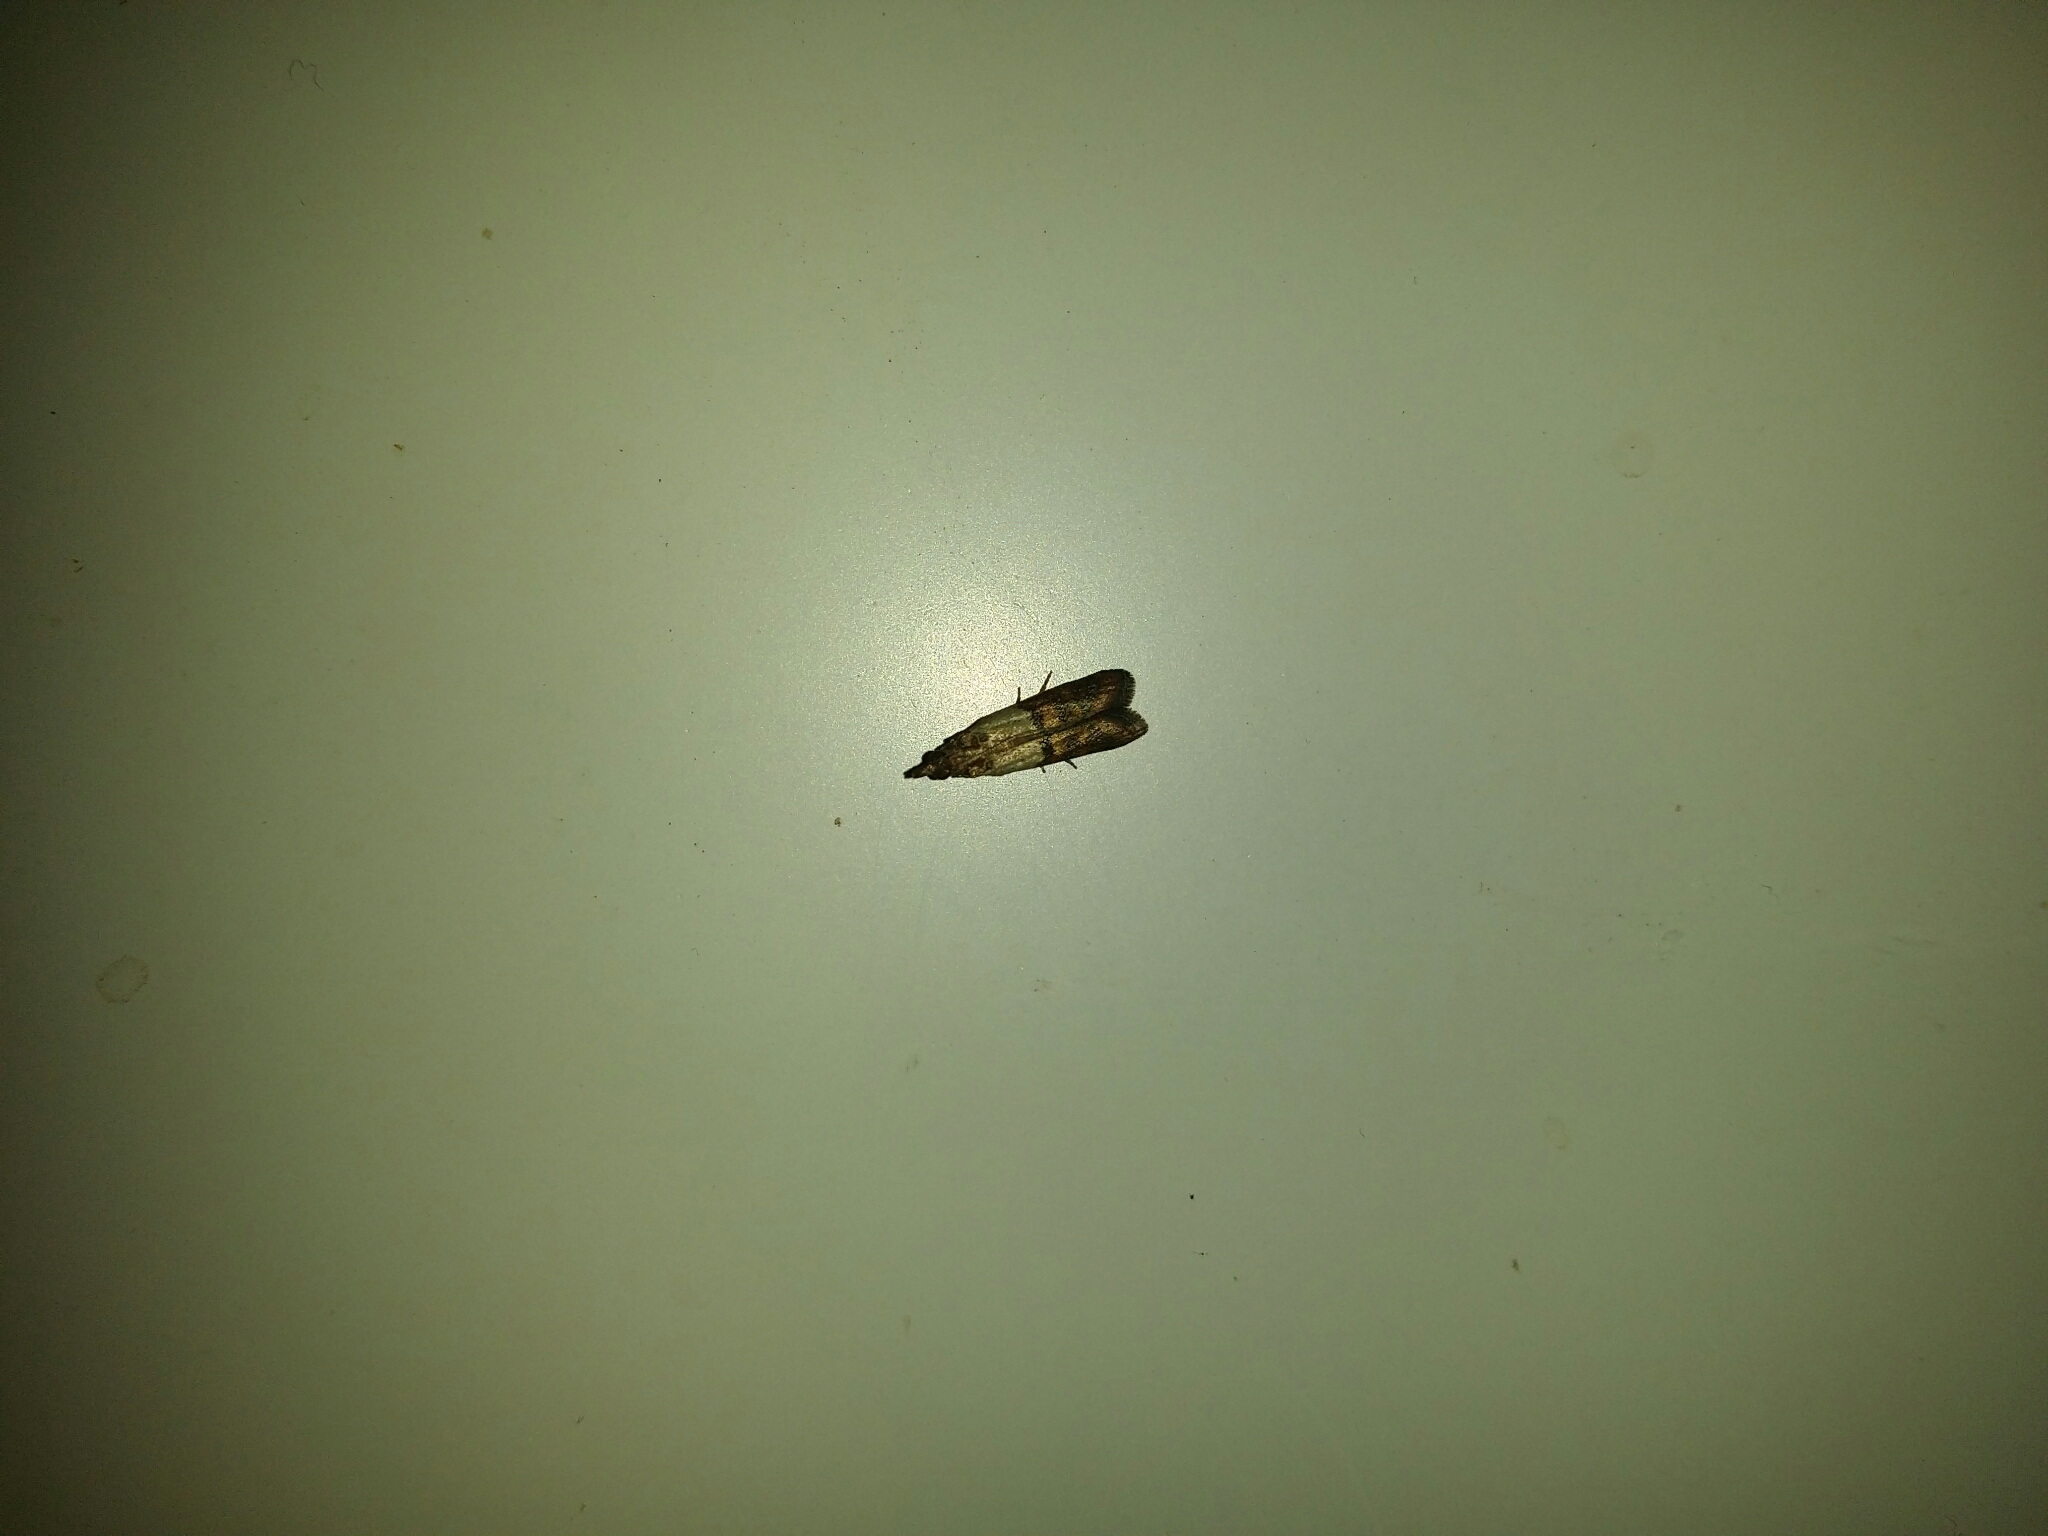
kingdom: Animalia
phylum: Arthropoda
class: Insecta
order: Lepidoptera
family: Pyralidae
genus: Plodia
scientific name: Plodia interpunctella
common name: Indian meal moth
